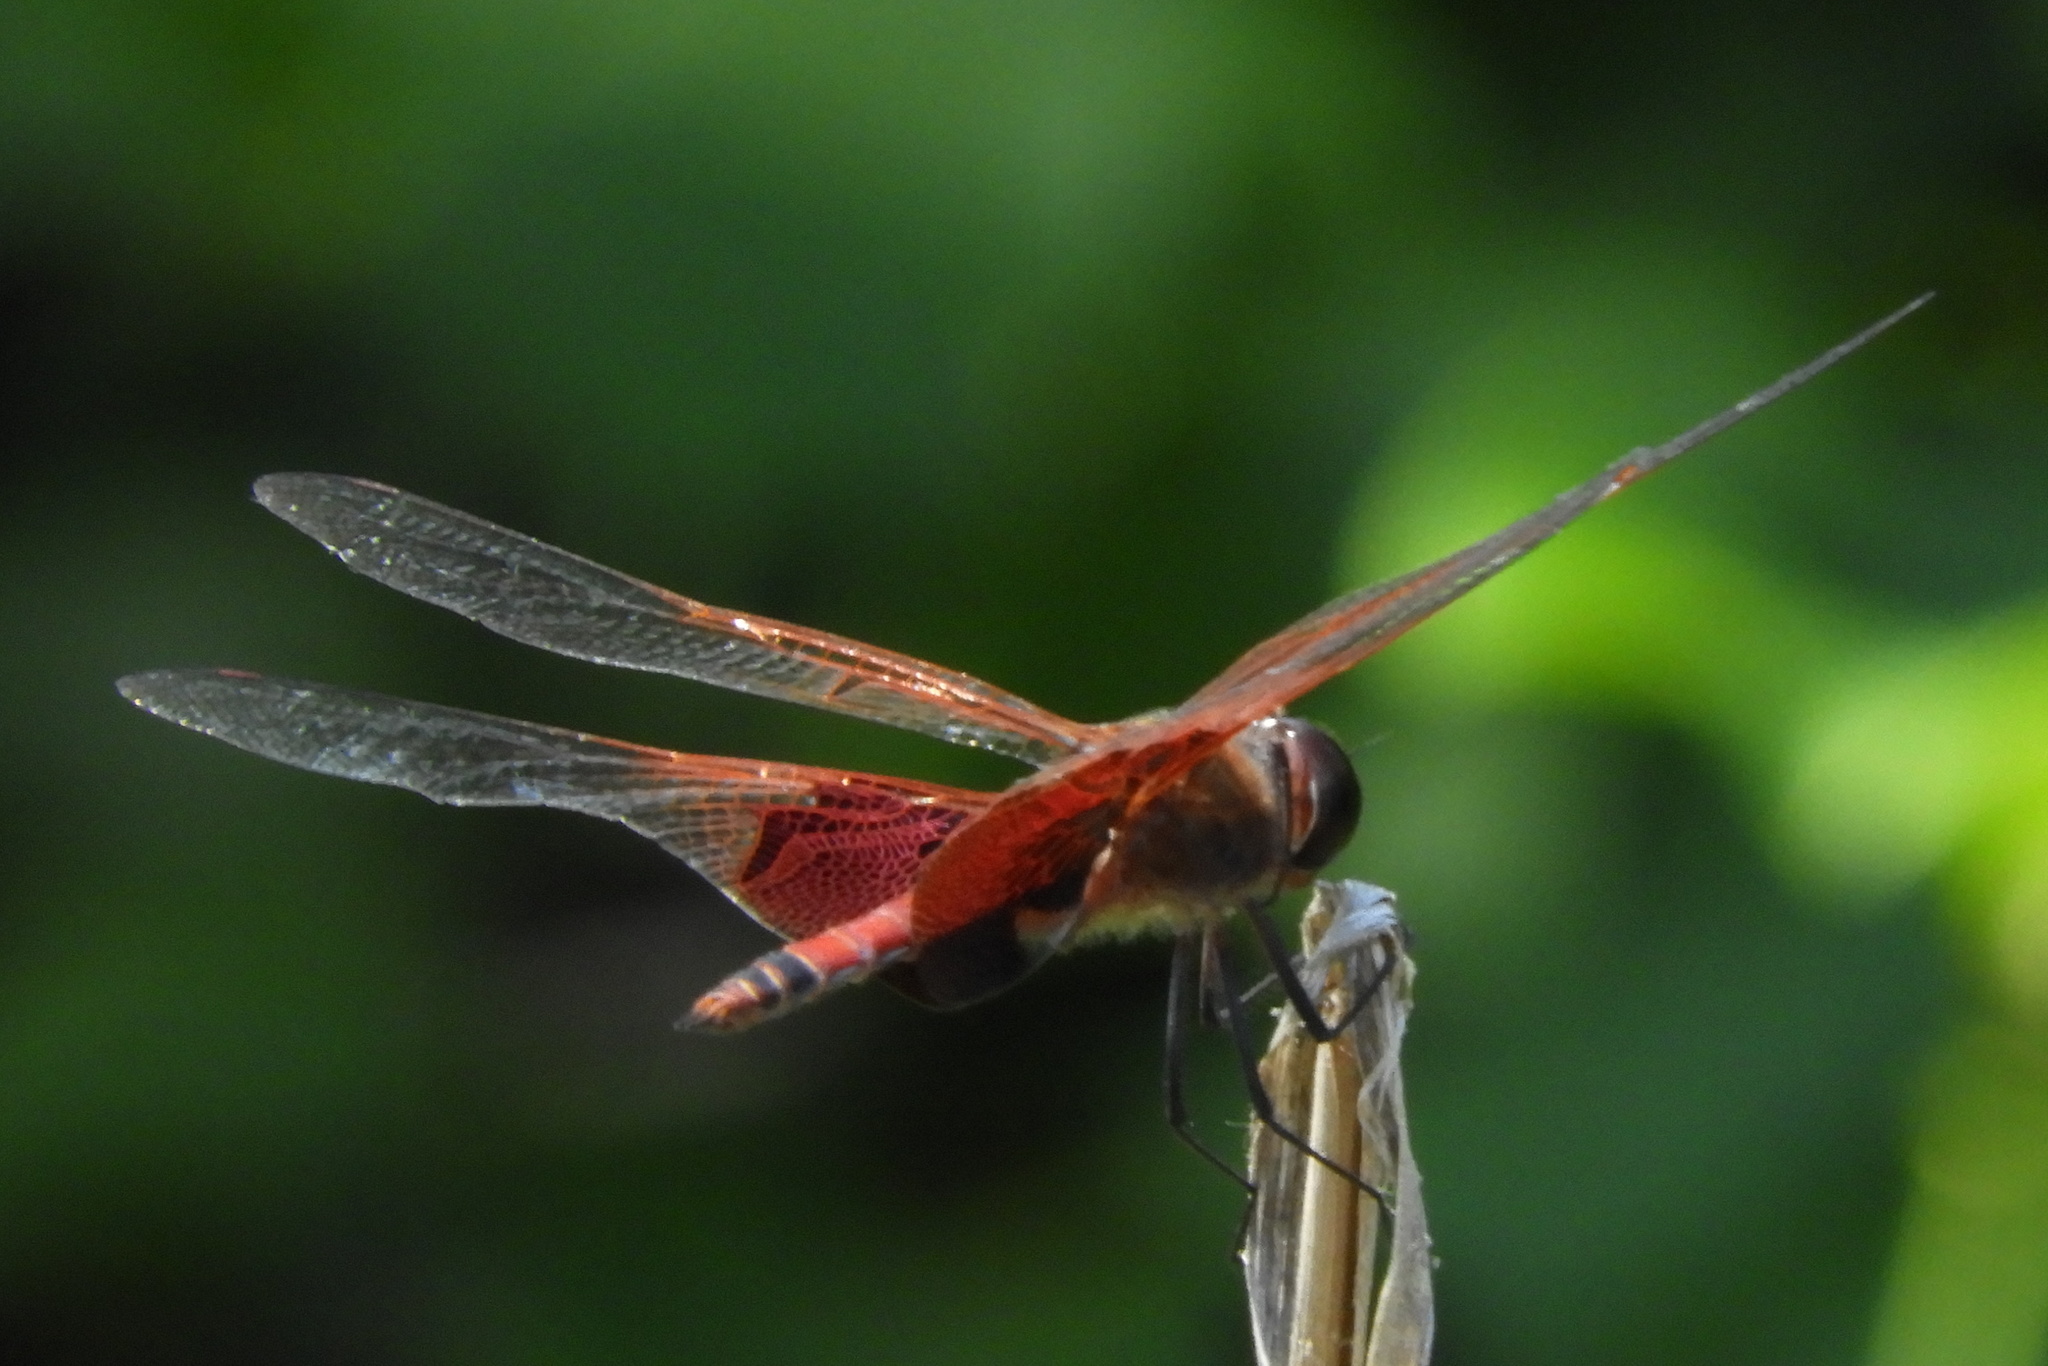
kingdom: Animalia
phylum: Arthropoda
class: Insecta
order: Odonata
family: Libellulidae
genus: Tramea
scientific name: Tramea carolina
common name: Carolina saddlebags
